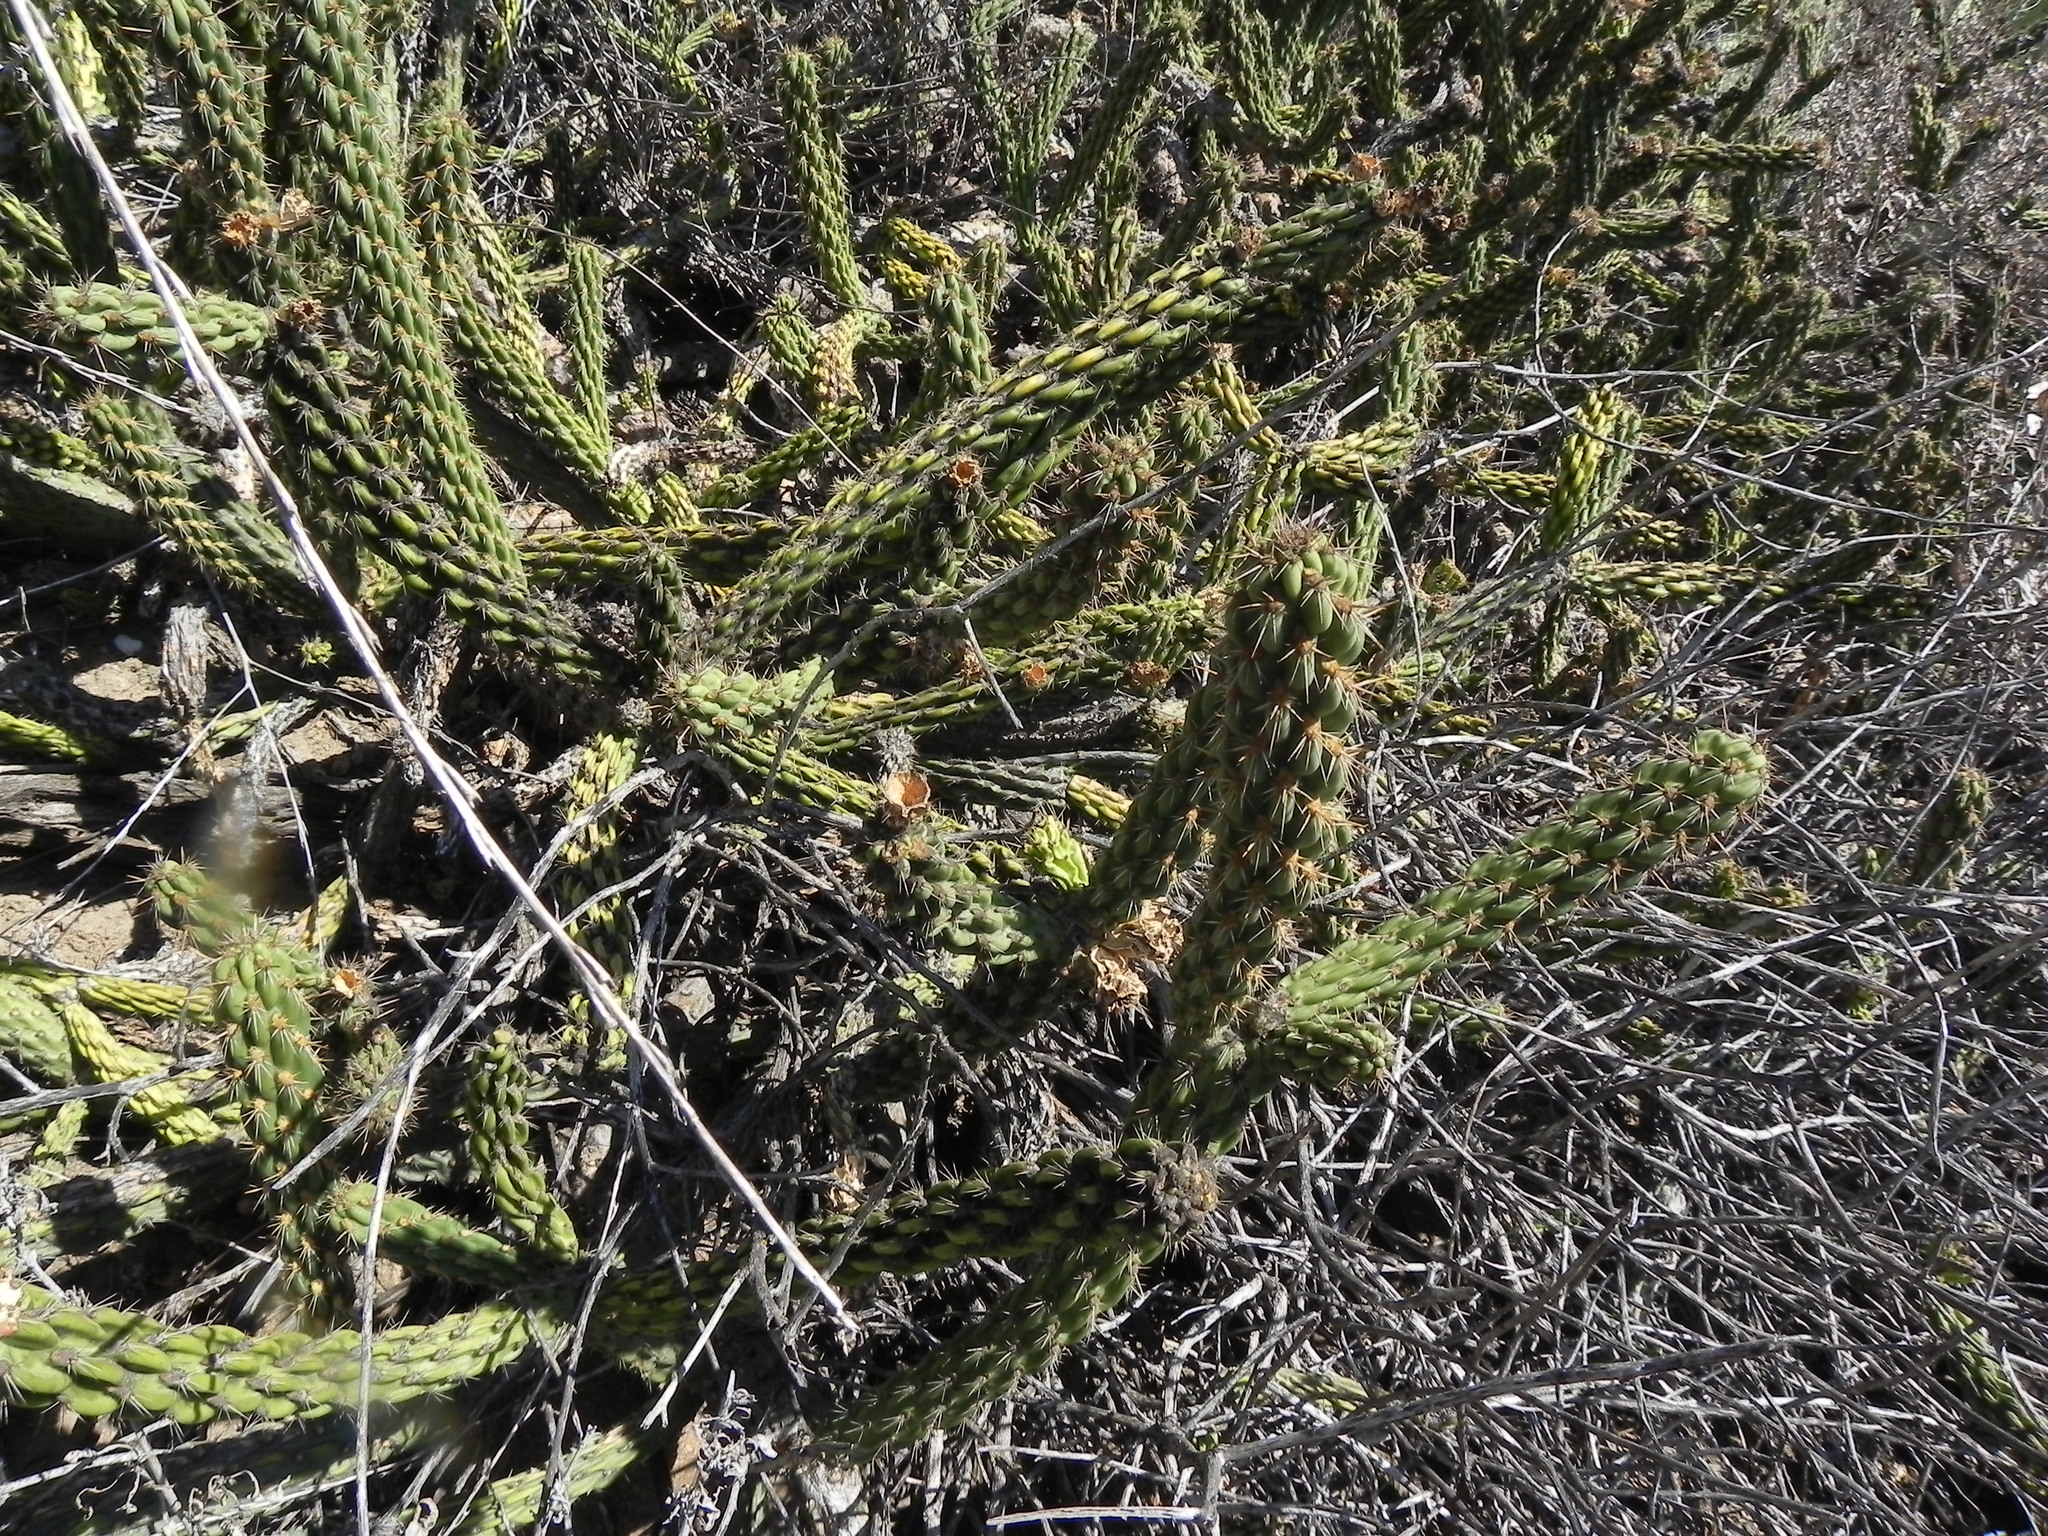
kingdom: Plantae
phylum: Tracheophyta
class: Magnoliopsida
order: Caryophyllales
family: Cactaceae
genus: Cylindropuntia
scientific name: Cylindropuntia californica
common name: Snake cholla
